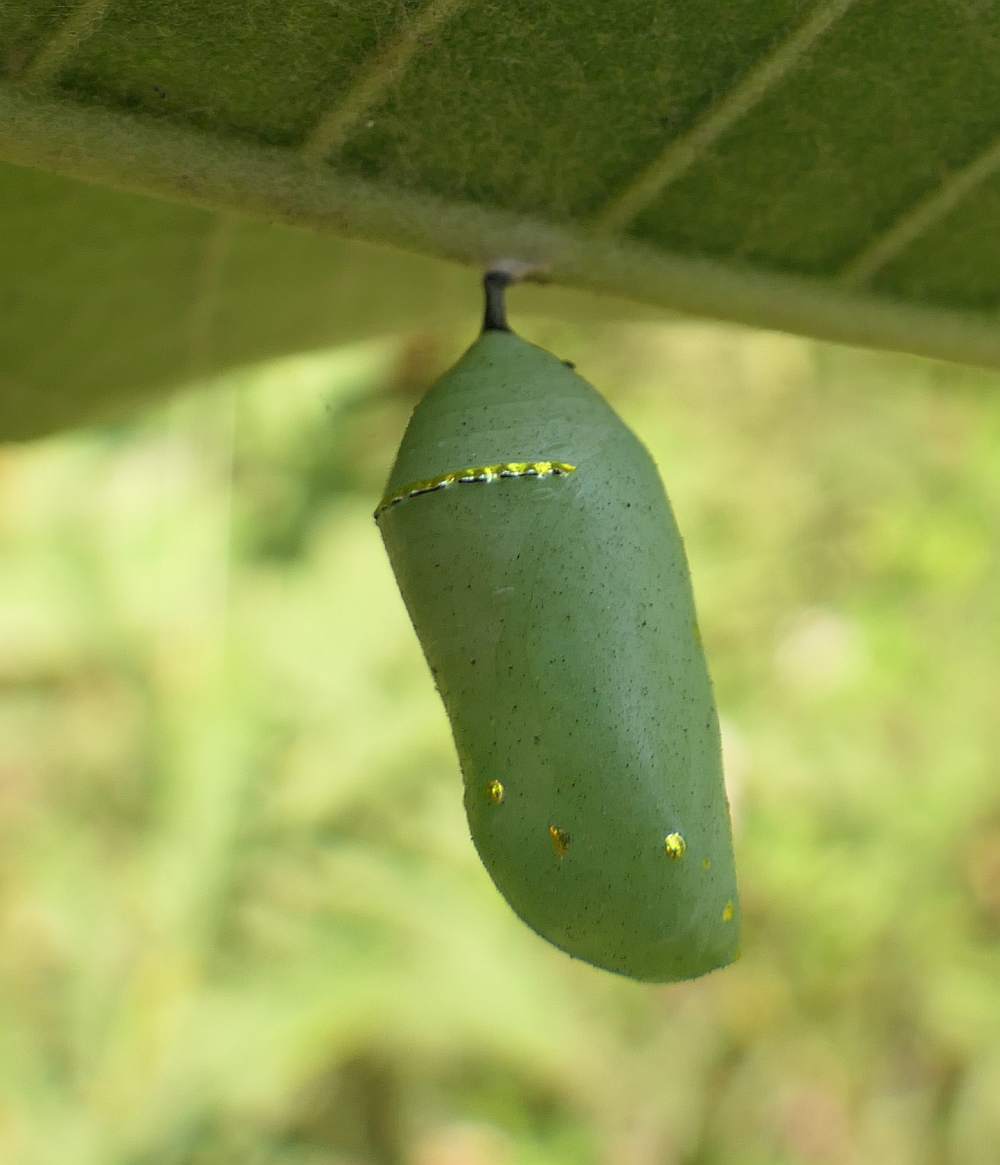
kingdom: Animalia
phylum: Arthropoda
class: Insecta
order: Lepidoptera
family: Nymphalidae
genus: Danaus
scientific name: Danaus plexippus
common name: Monarch
